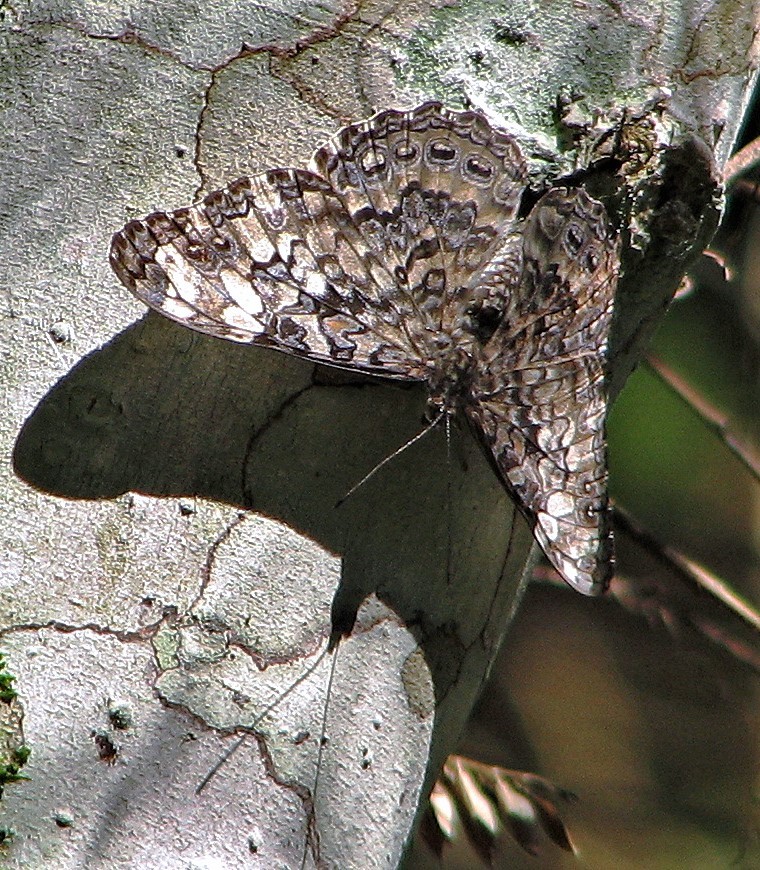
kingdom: Animalia
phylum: Arthropoda
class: Insecta
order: Lepidoptera
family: Nymphalidae
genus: Hamadryas
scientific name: Hamadryas epinome
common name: Epinome cracker
